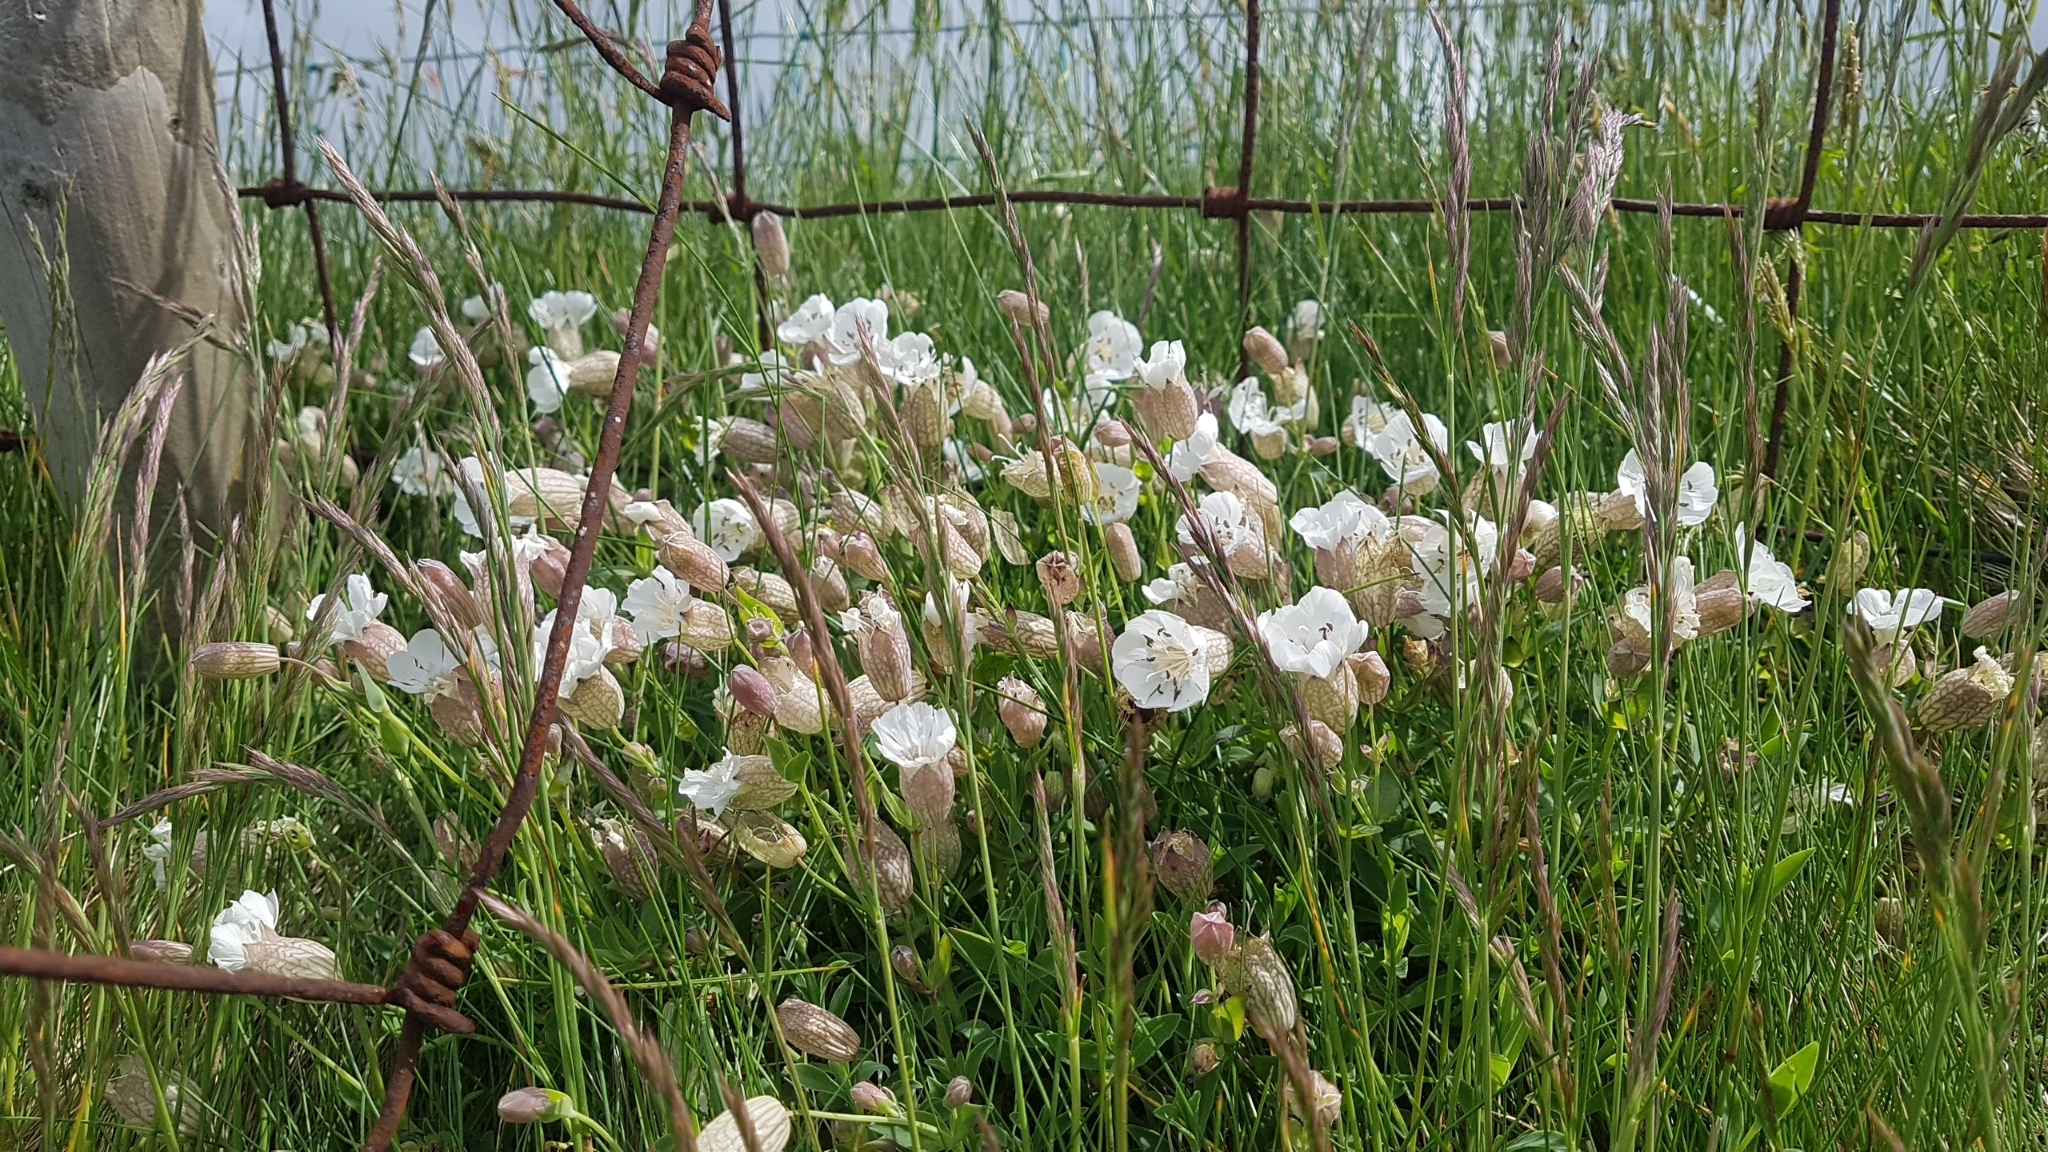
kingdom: Plantae
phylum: Tracheophyta
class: Magnoliopsida
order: Caryophyllales
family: Caryophyllaceae
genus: Silene
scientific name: Silene uniflora
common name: Sea campion
